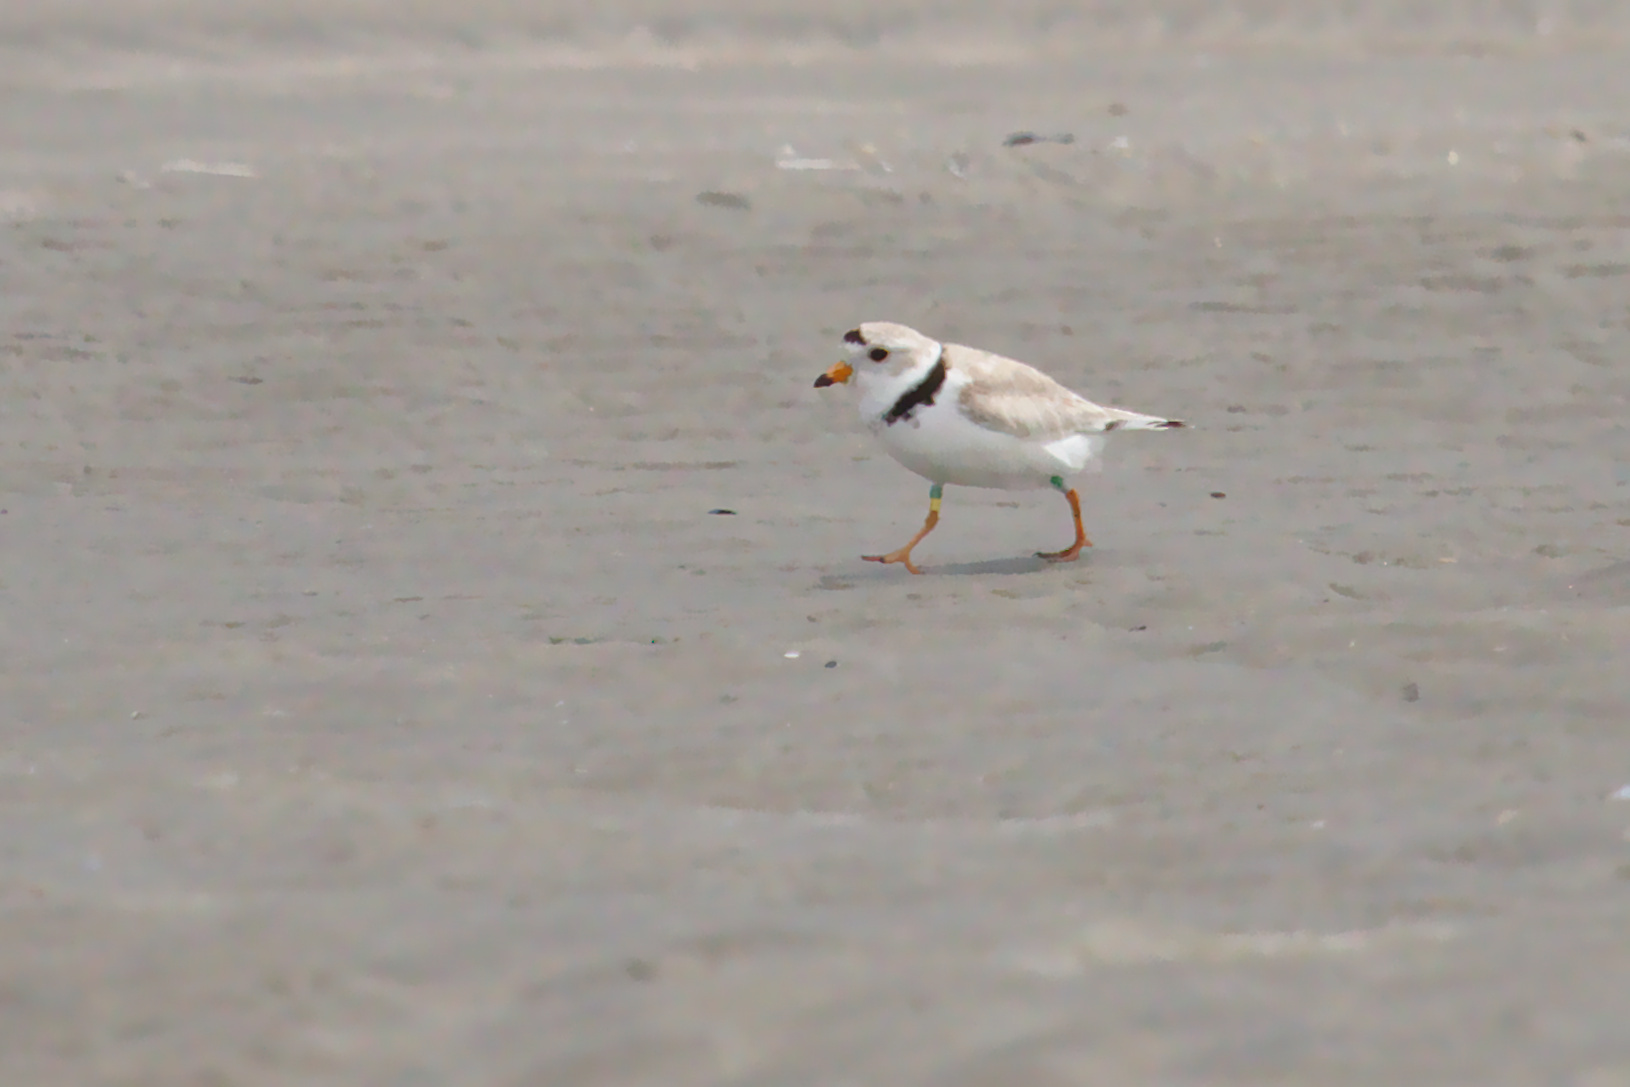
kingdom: Animalia
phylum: Chordata
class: Aves
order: Charadriiformes
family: Charadriidae
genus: Charadrius
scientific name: Charadrius melodus
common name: Piping plover
